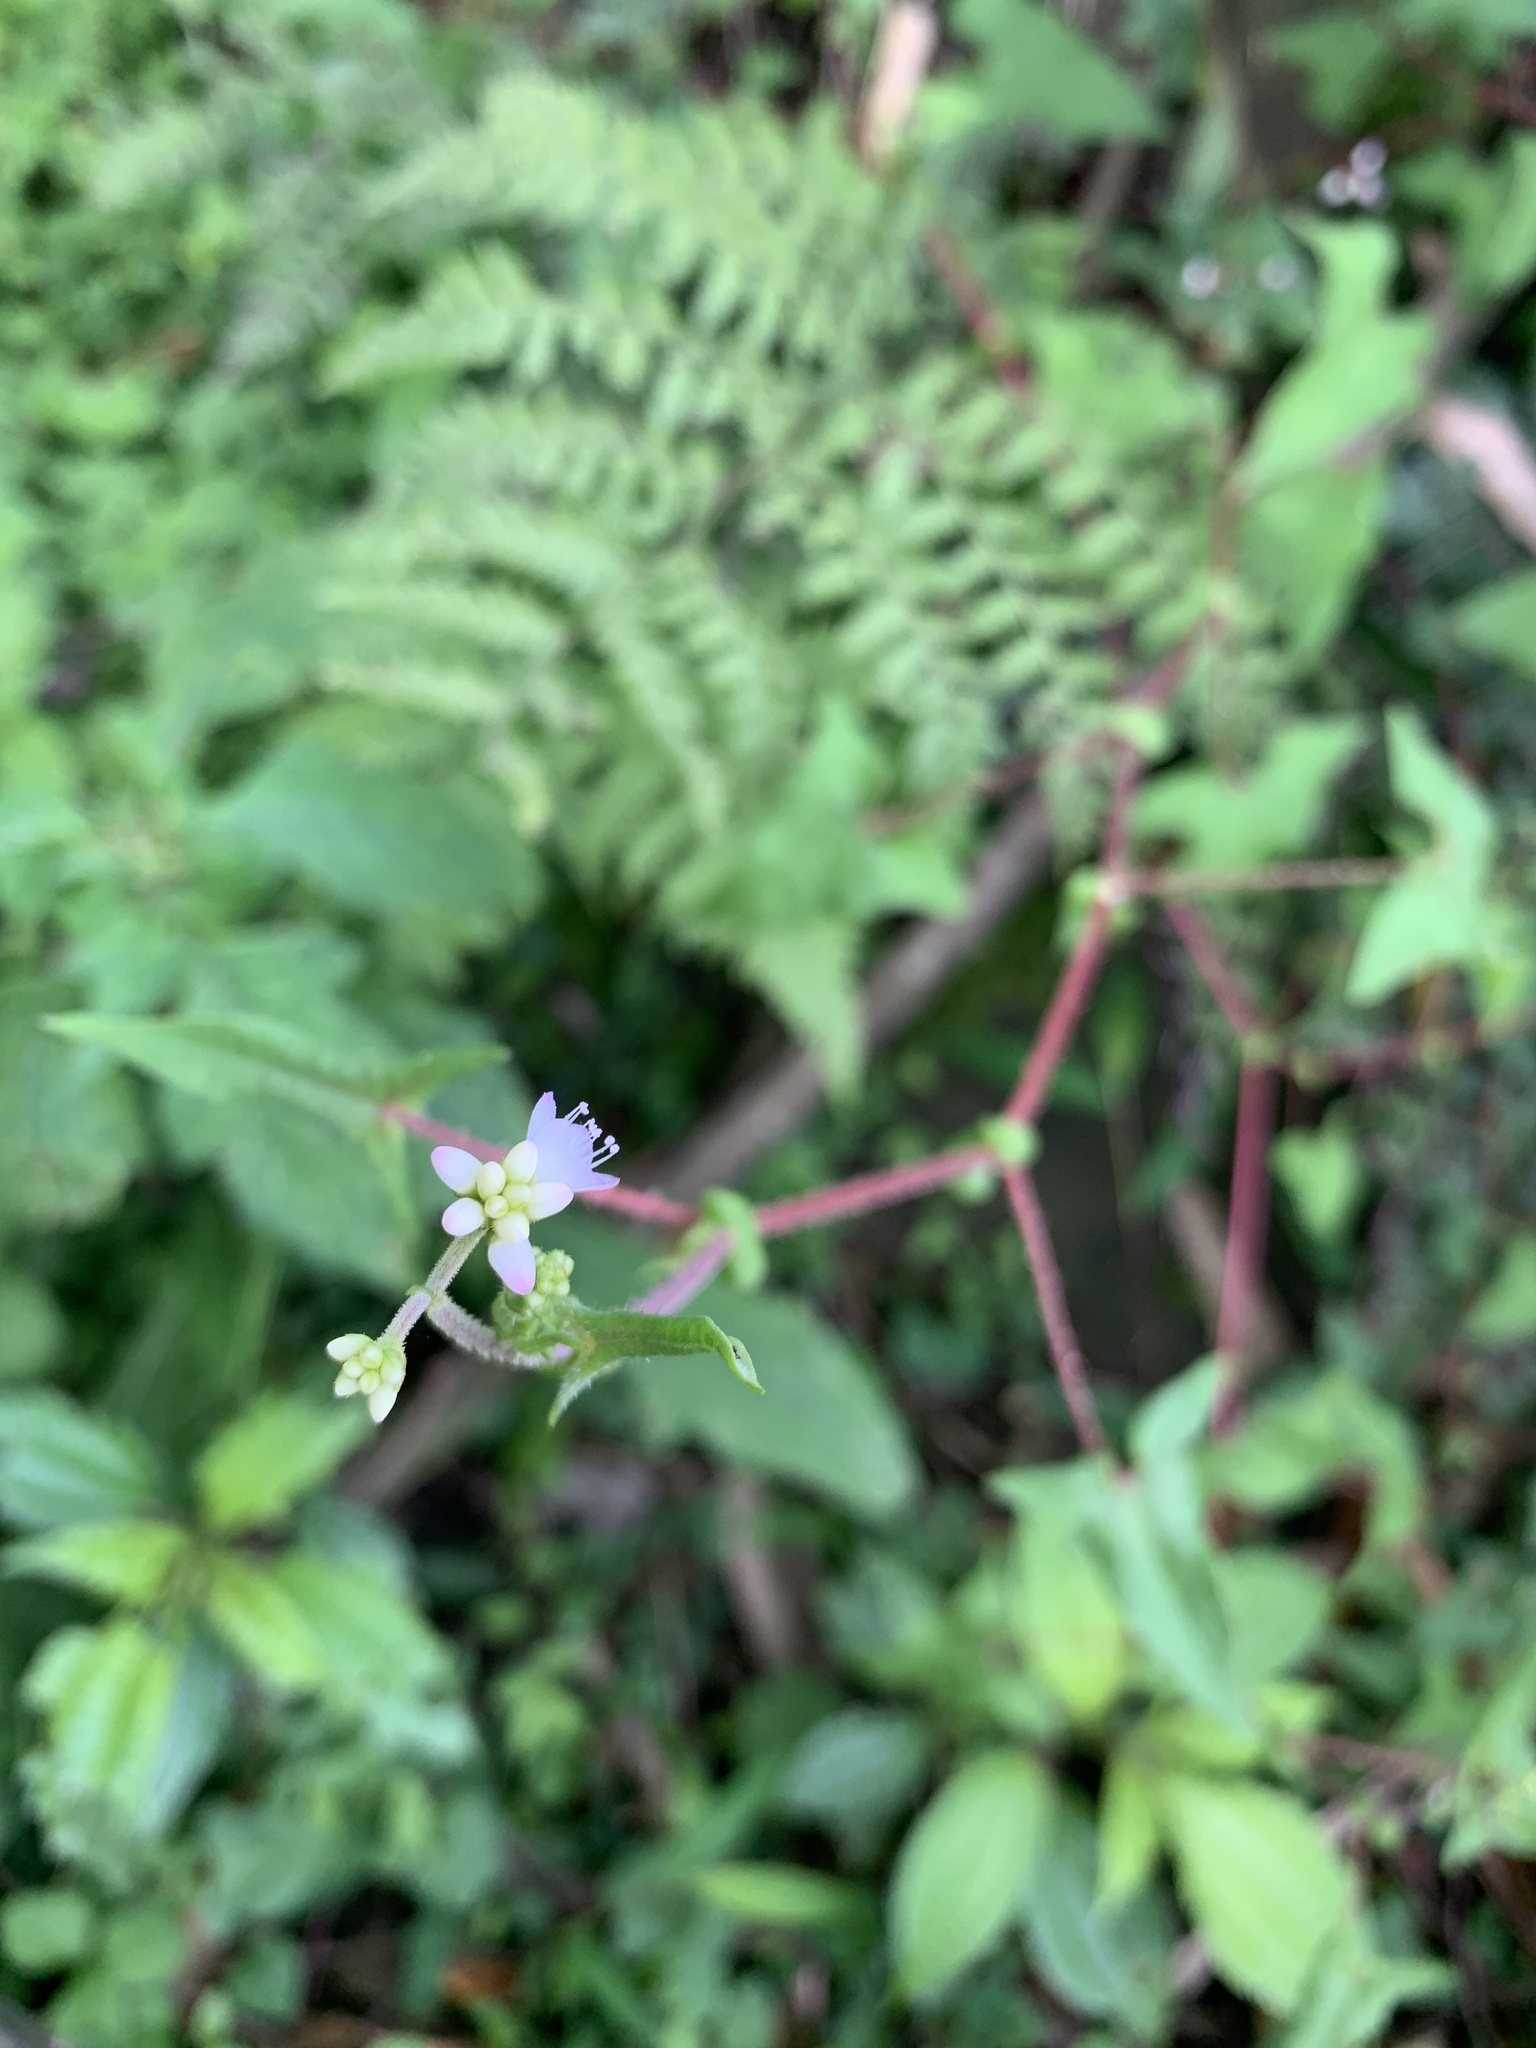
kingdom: Plantae
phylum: Tracheophyta
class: Magnoliopsida
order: Caryophyllales
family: Polygonaceae
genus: Persicaria
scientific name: Persicaria senticosa
